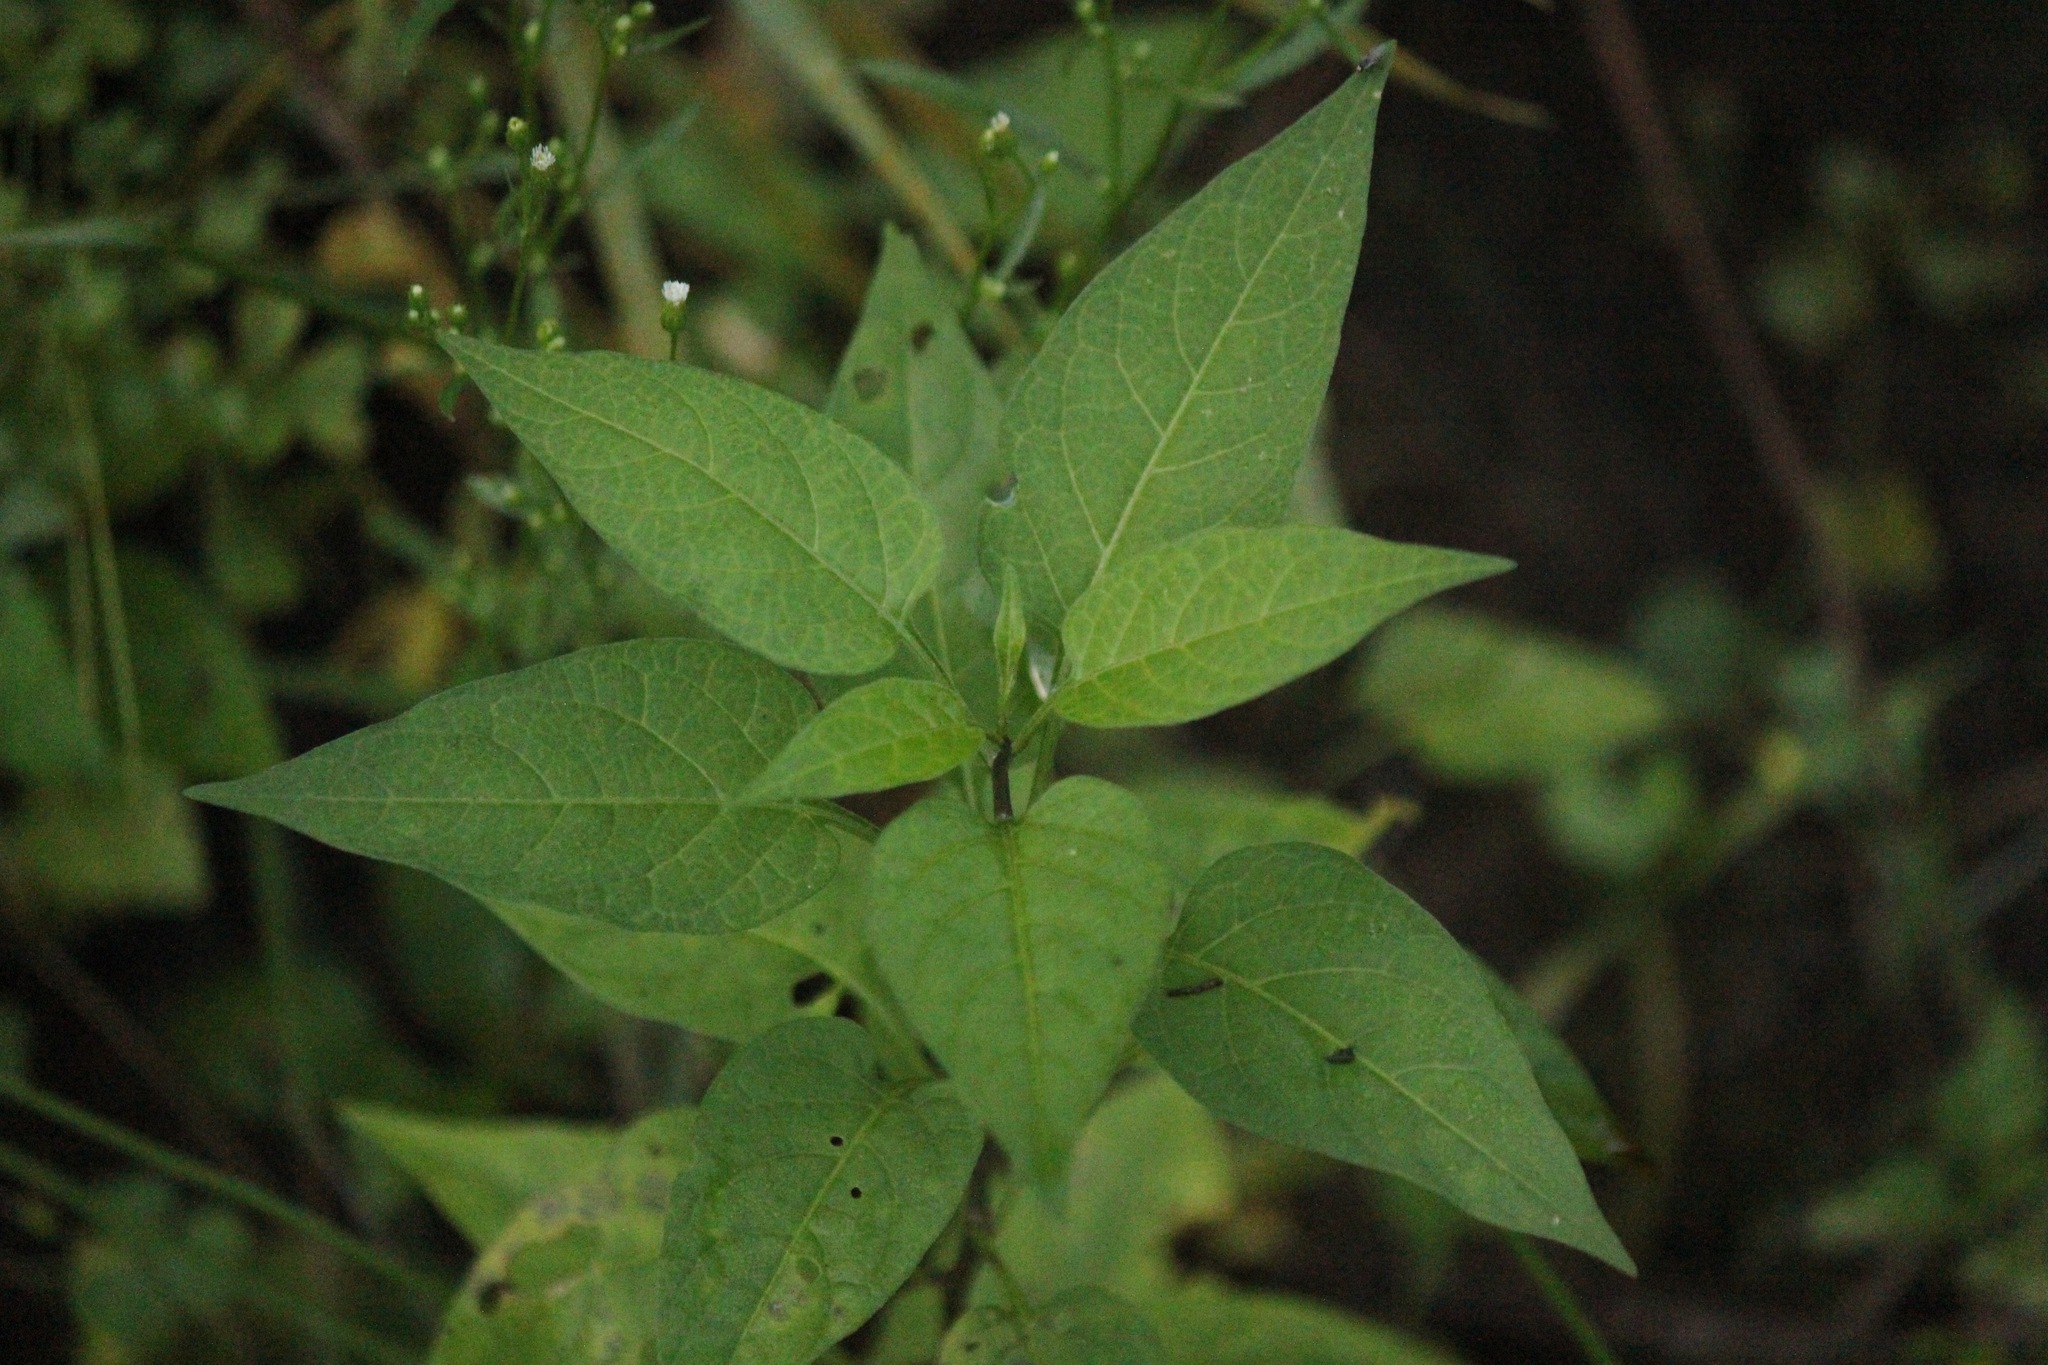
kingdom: Plantae
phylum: Tracheophyta
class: Magnoliopsida
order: Solanales
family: Solanaceae
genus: Solanum
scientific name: Solanum dulcamara
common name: Climbing nightshade
